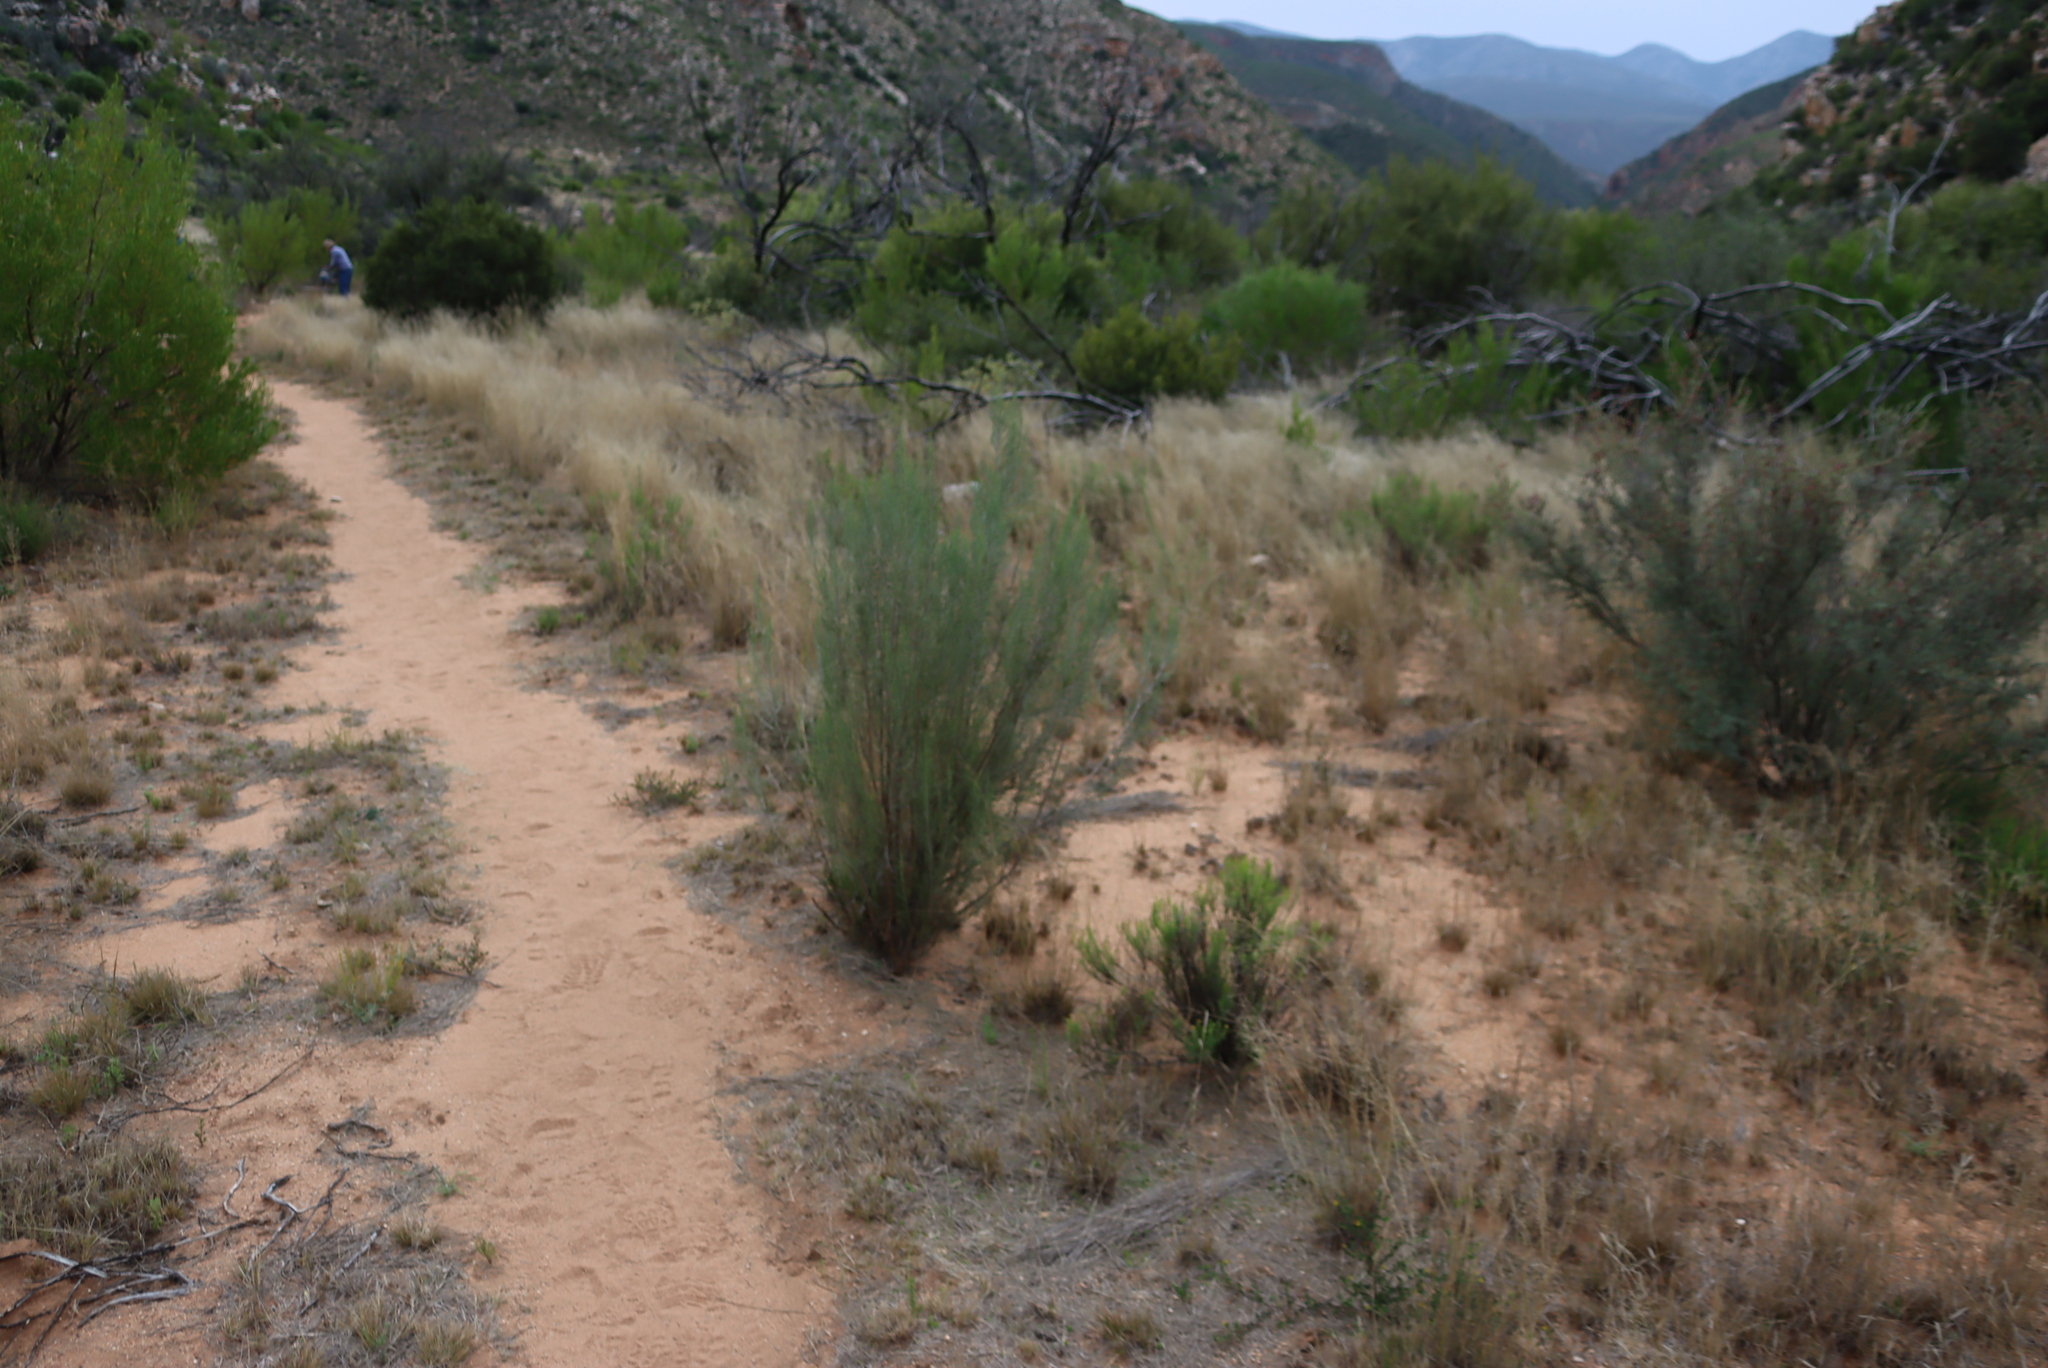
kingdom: Plantae
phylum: Tracheophyta
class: Magnoliopsida
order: Asterales
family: Asteraceae
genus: Dicerothamnus
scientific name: Dicerothamnus rhinocerotis
